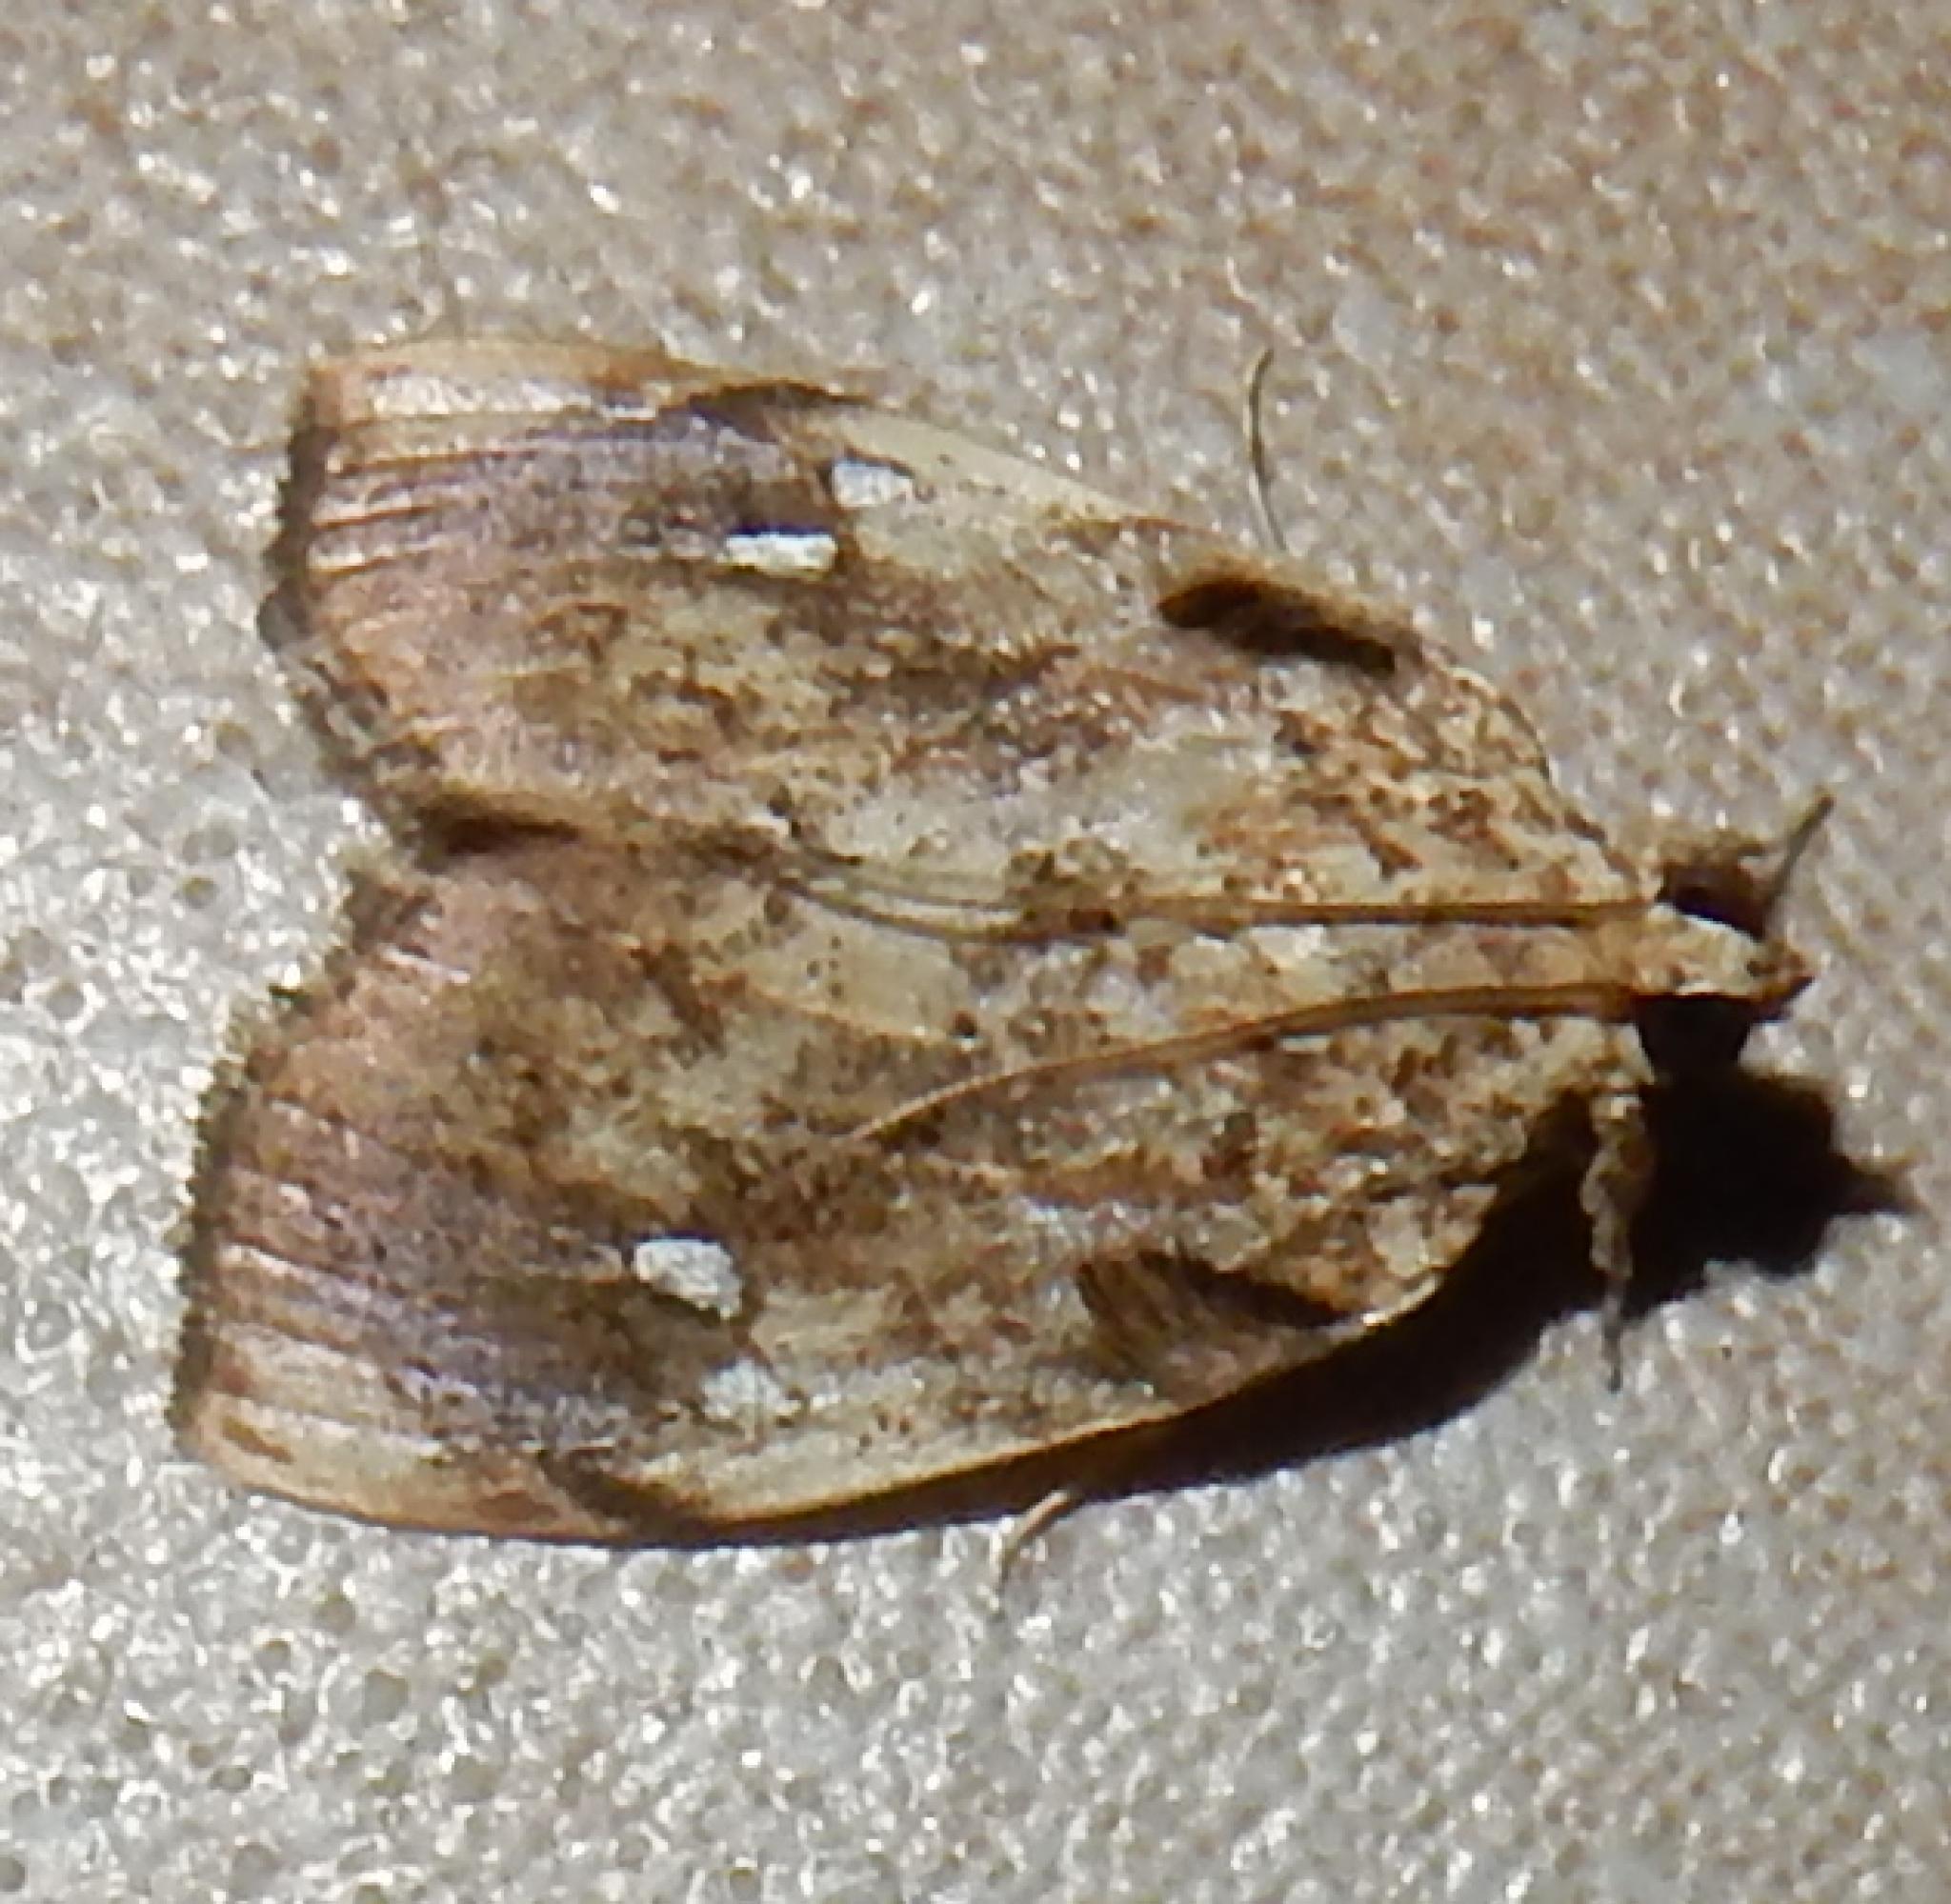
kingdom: Animalia
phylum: Arthropoda
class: Insecta
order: Lepidoptera
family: Crambidae
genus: Crocidolomia
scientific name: Crocidolomia pavonana
